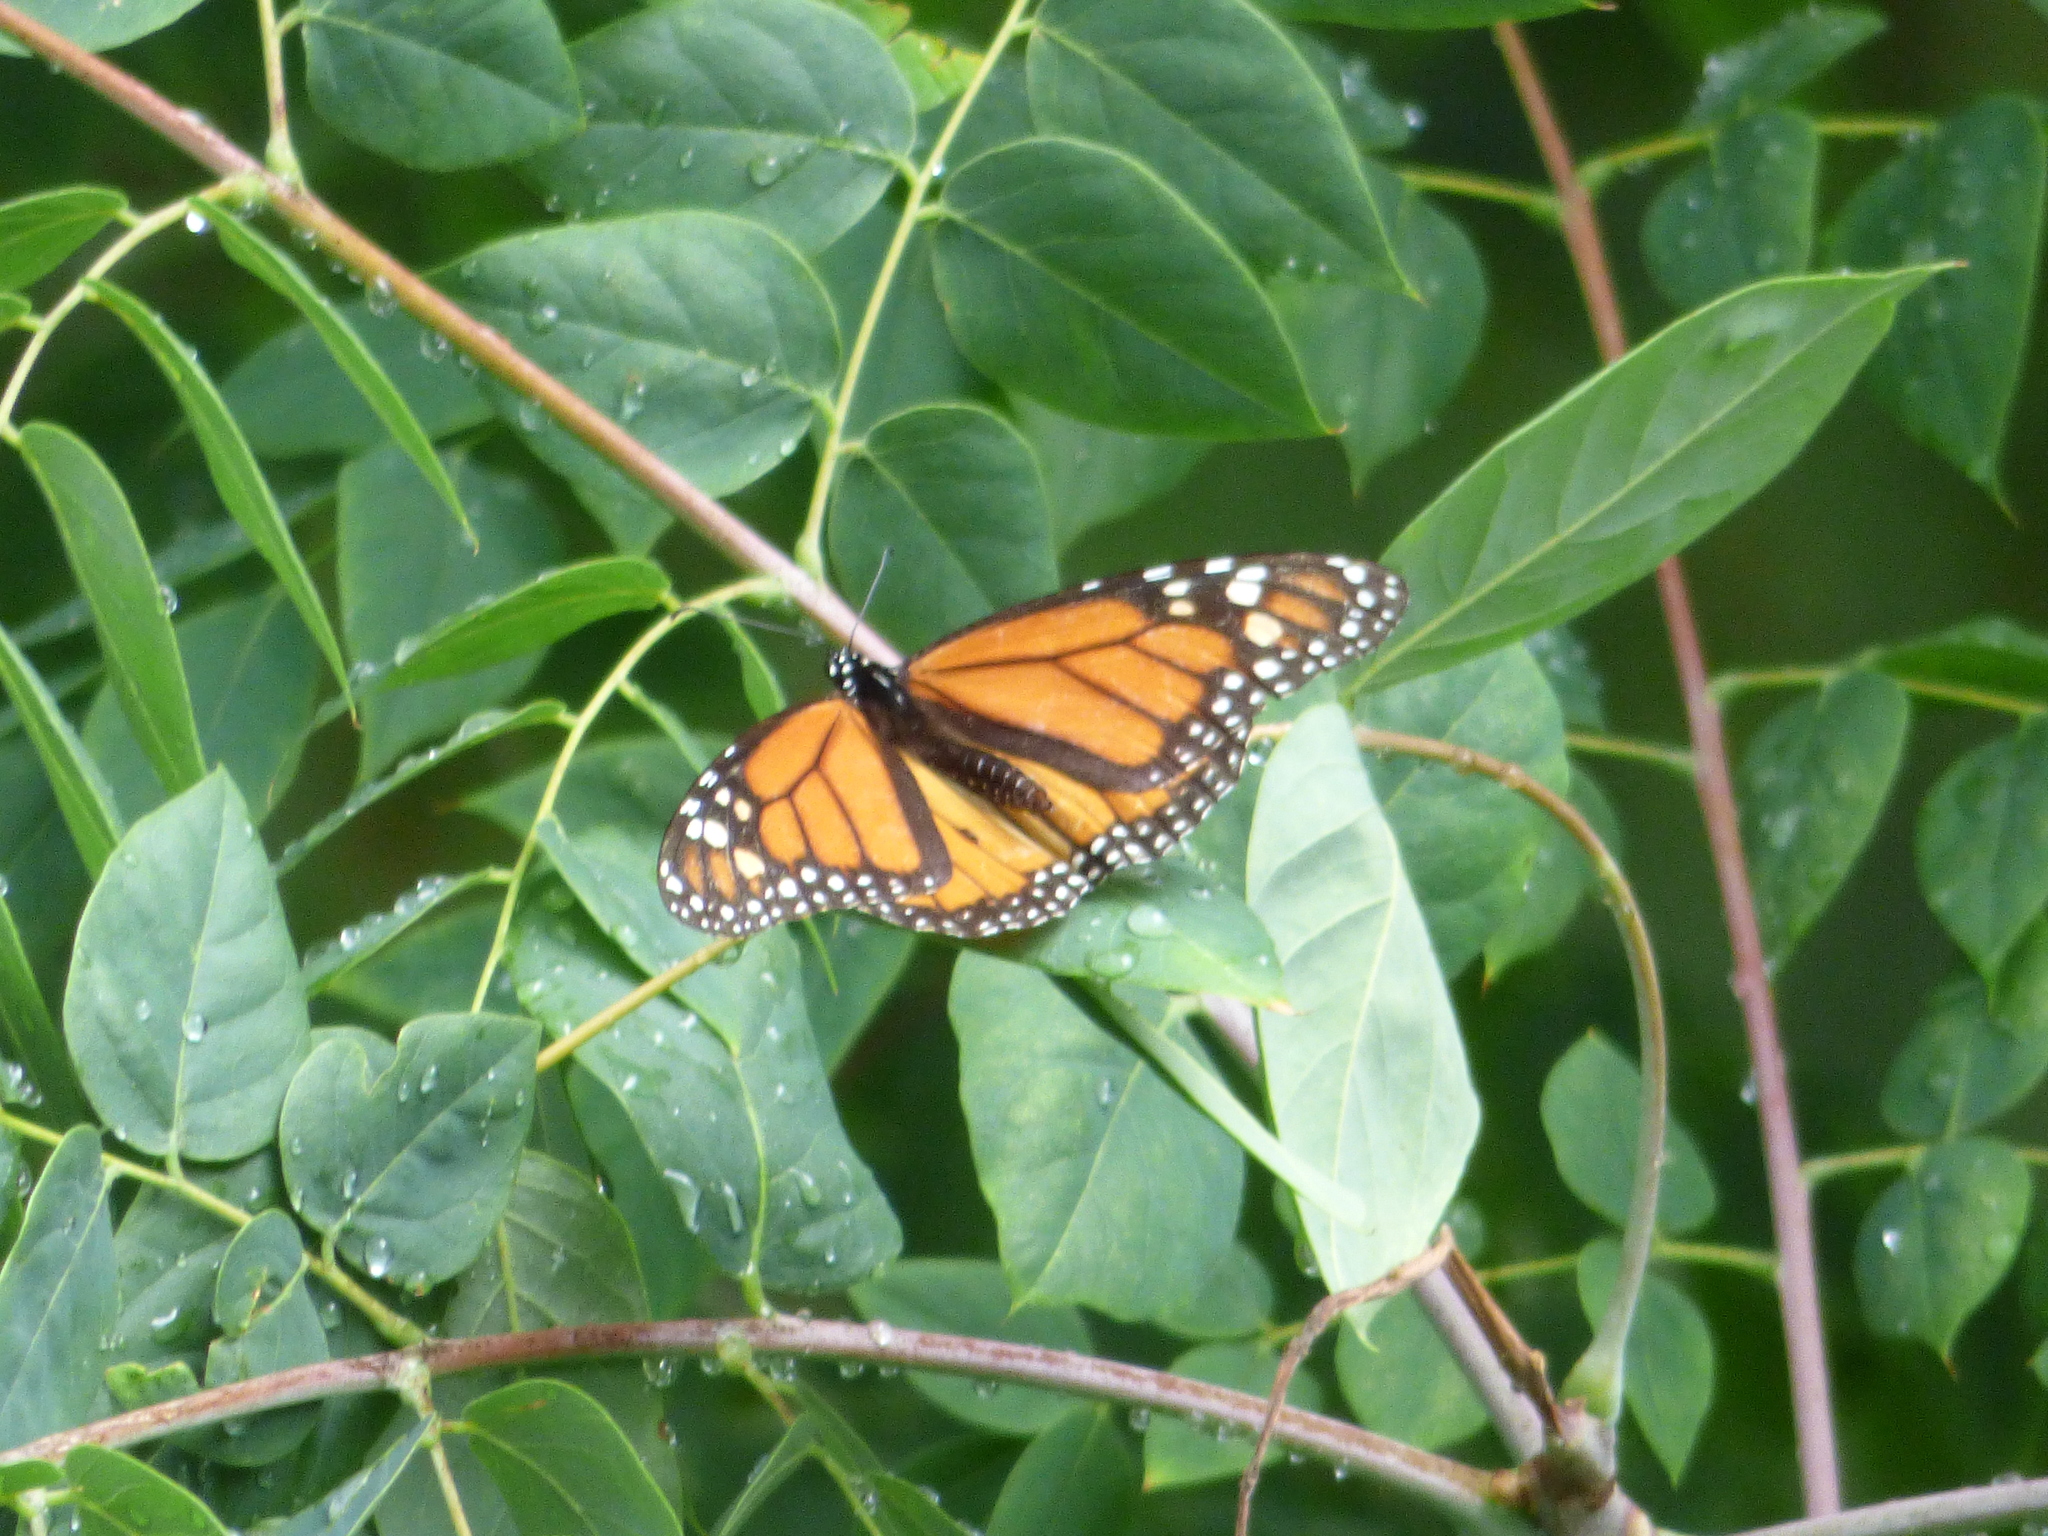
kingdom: Animalia
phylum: Arthropoda
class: Insecta
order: Lepidoptera
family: Nymphalidae
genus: Danaus
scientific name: Danaus plexippus
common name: Monarch
